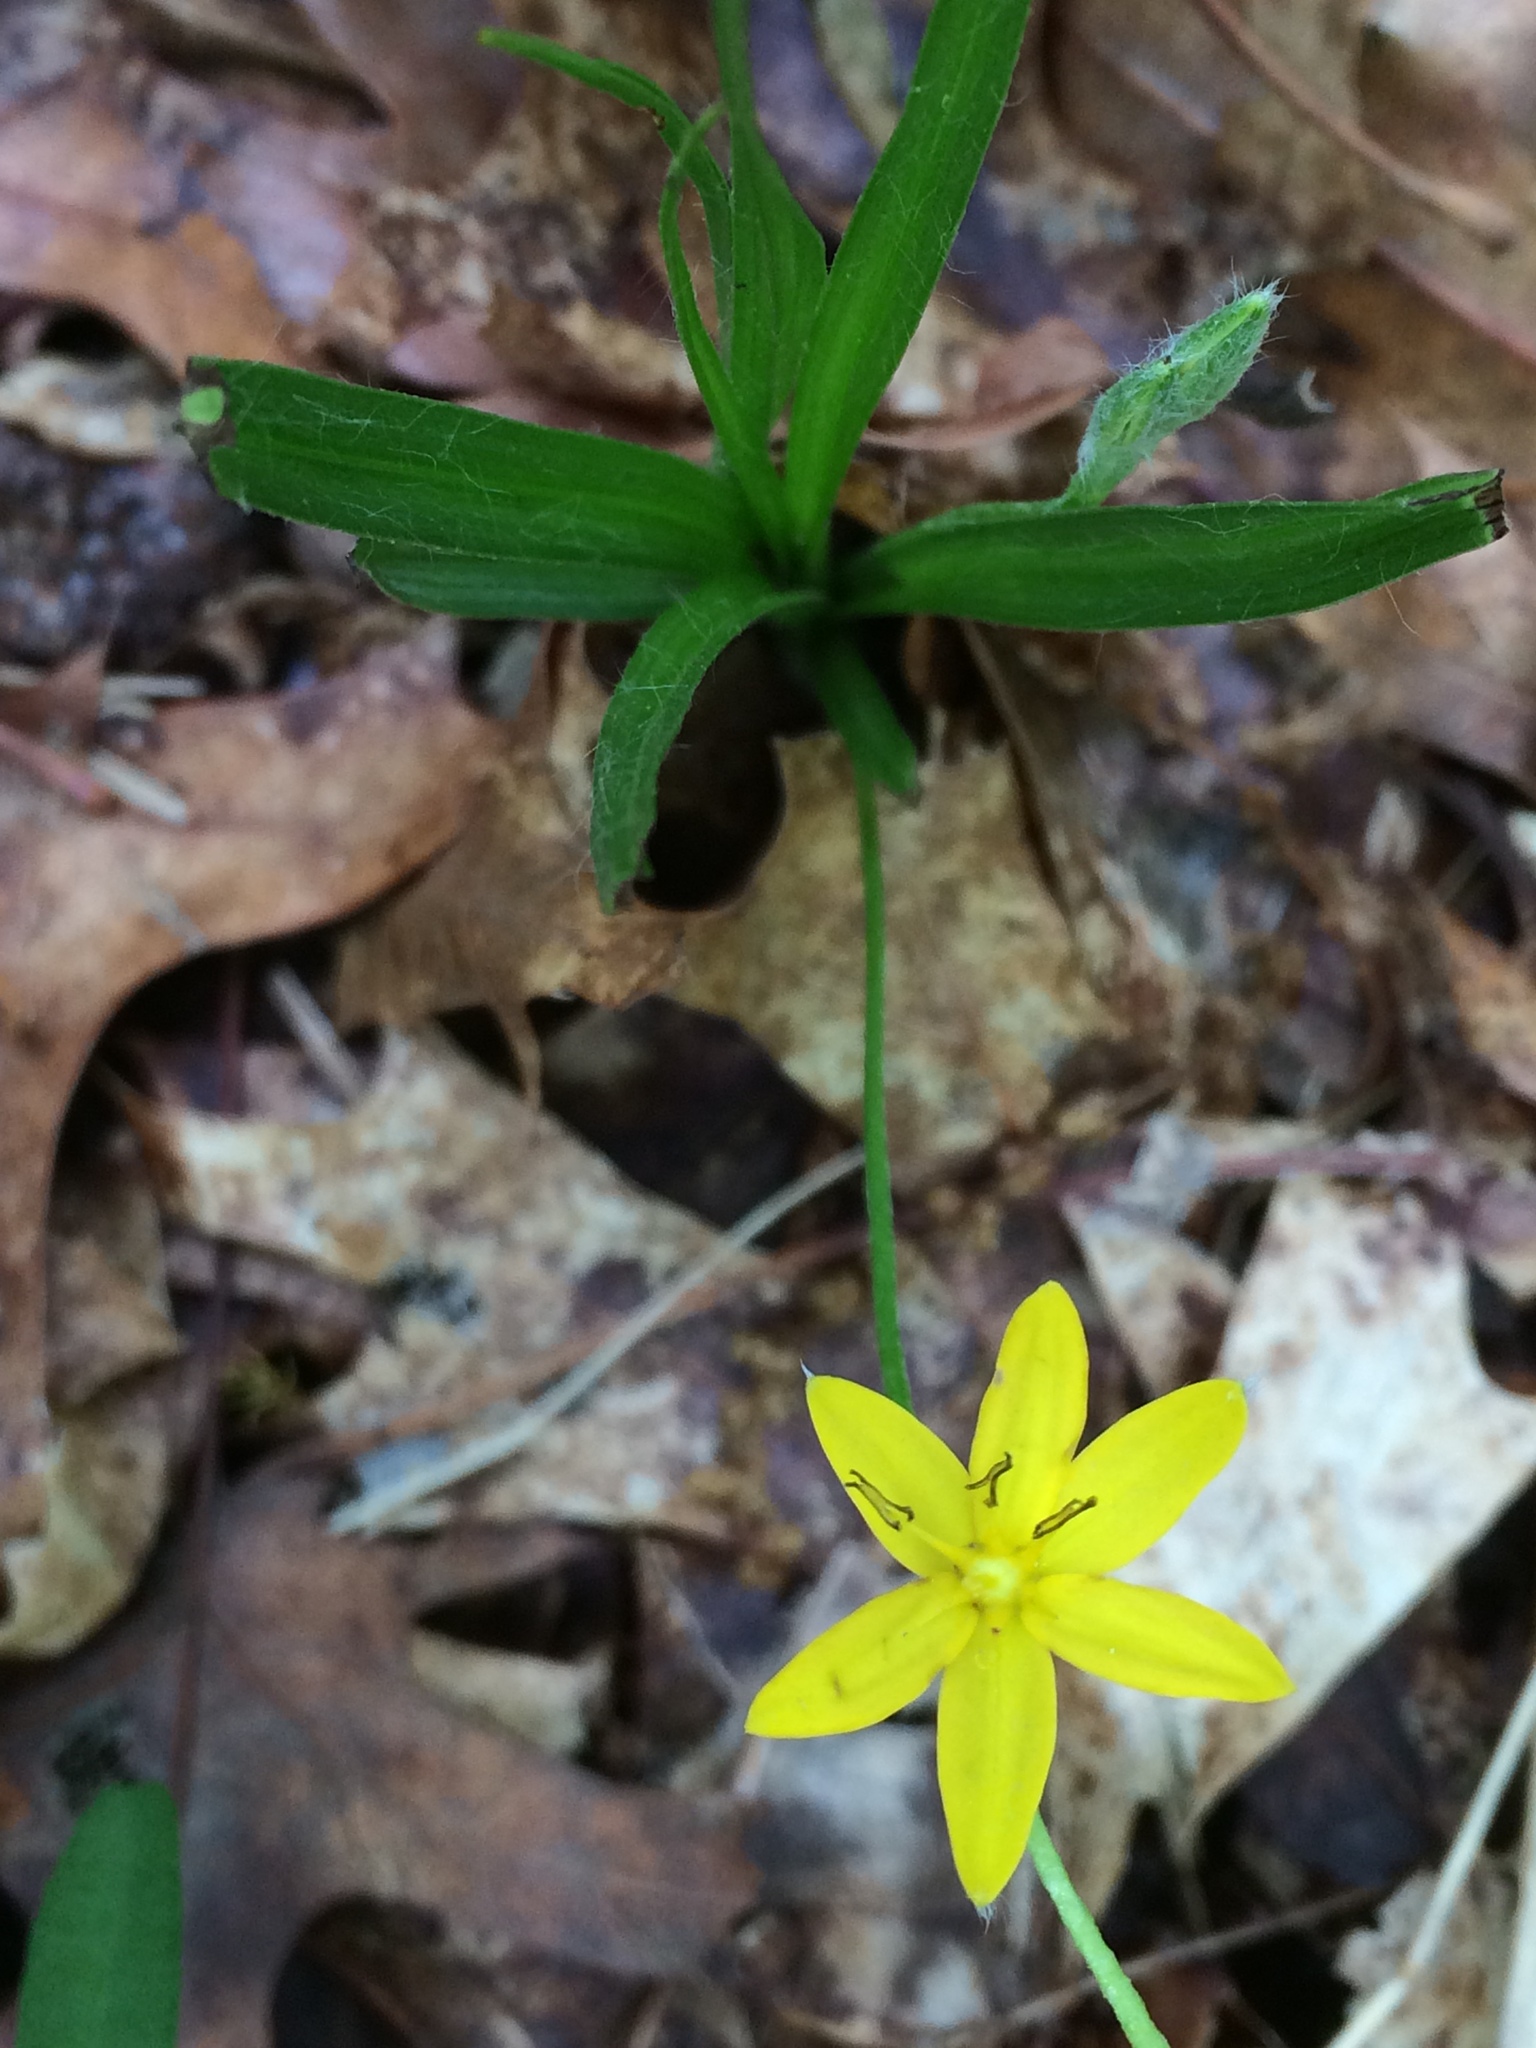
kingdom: Plantae
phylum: Tracheophyta
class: Liliopsida
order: Asparagales
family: Hypoxidaceae
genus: Hypoxis
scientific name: Hypoxis hirsuta
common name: Common goldstar
